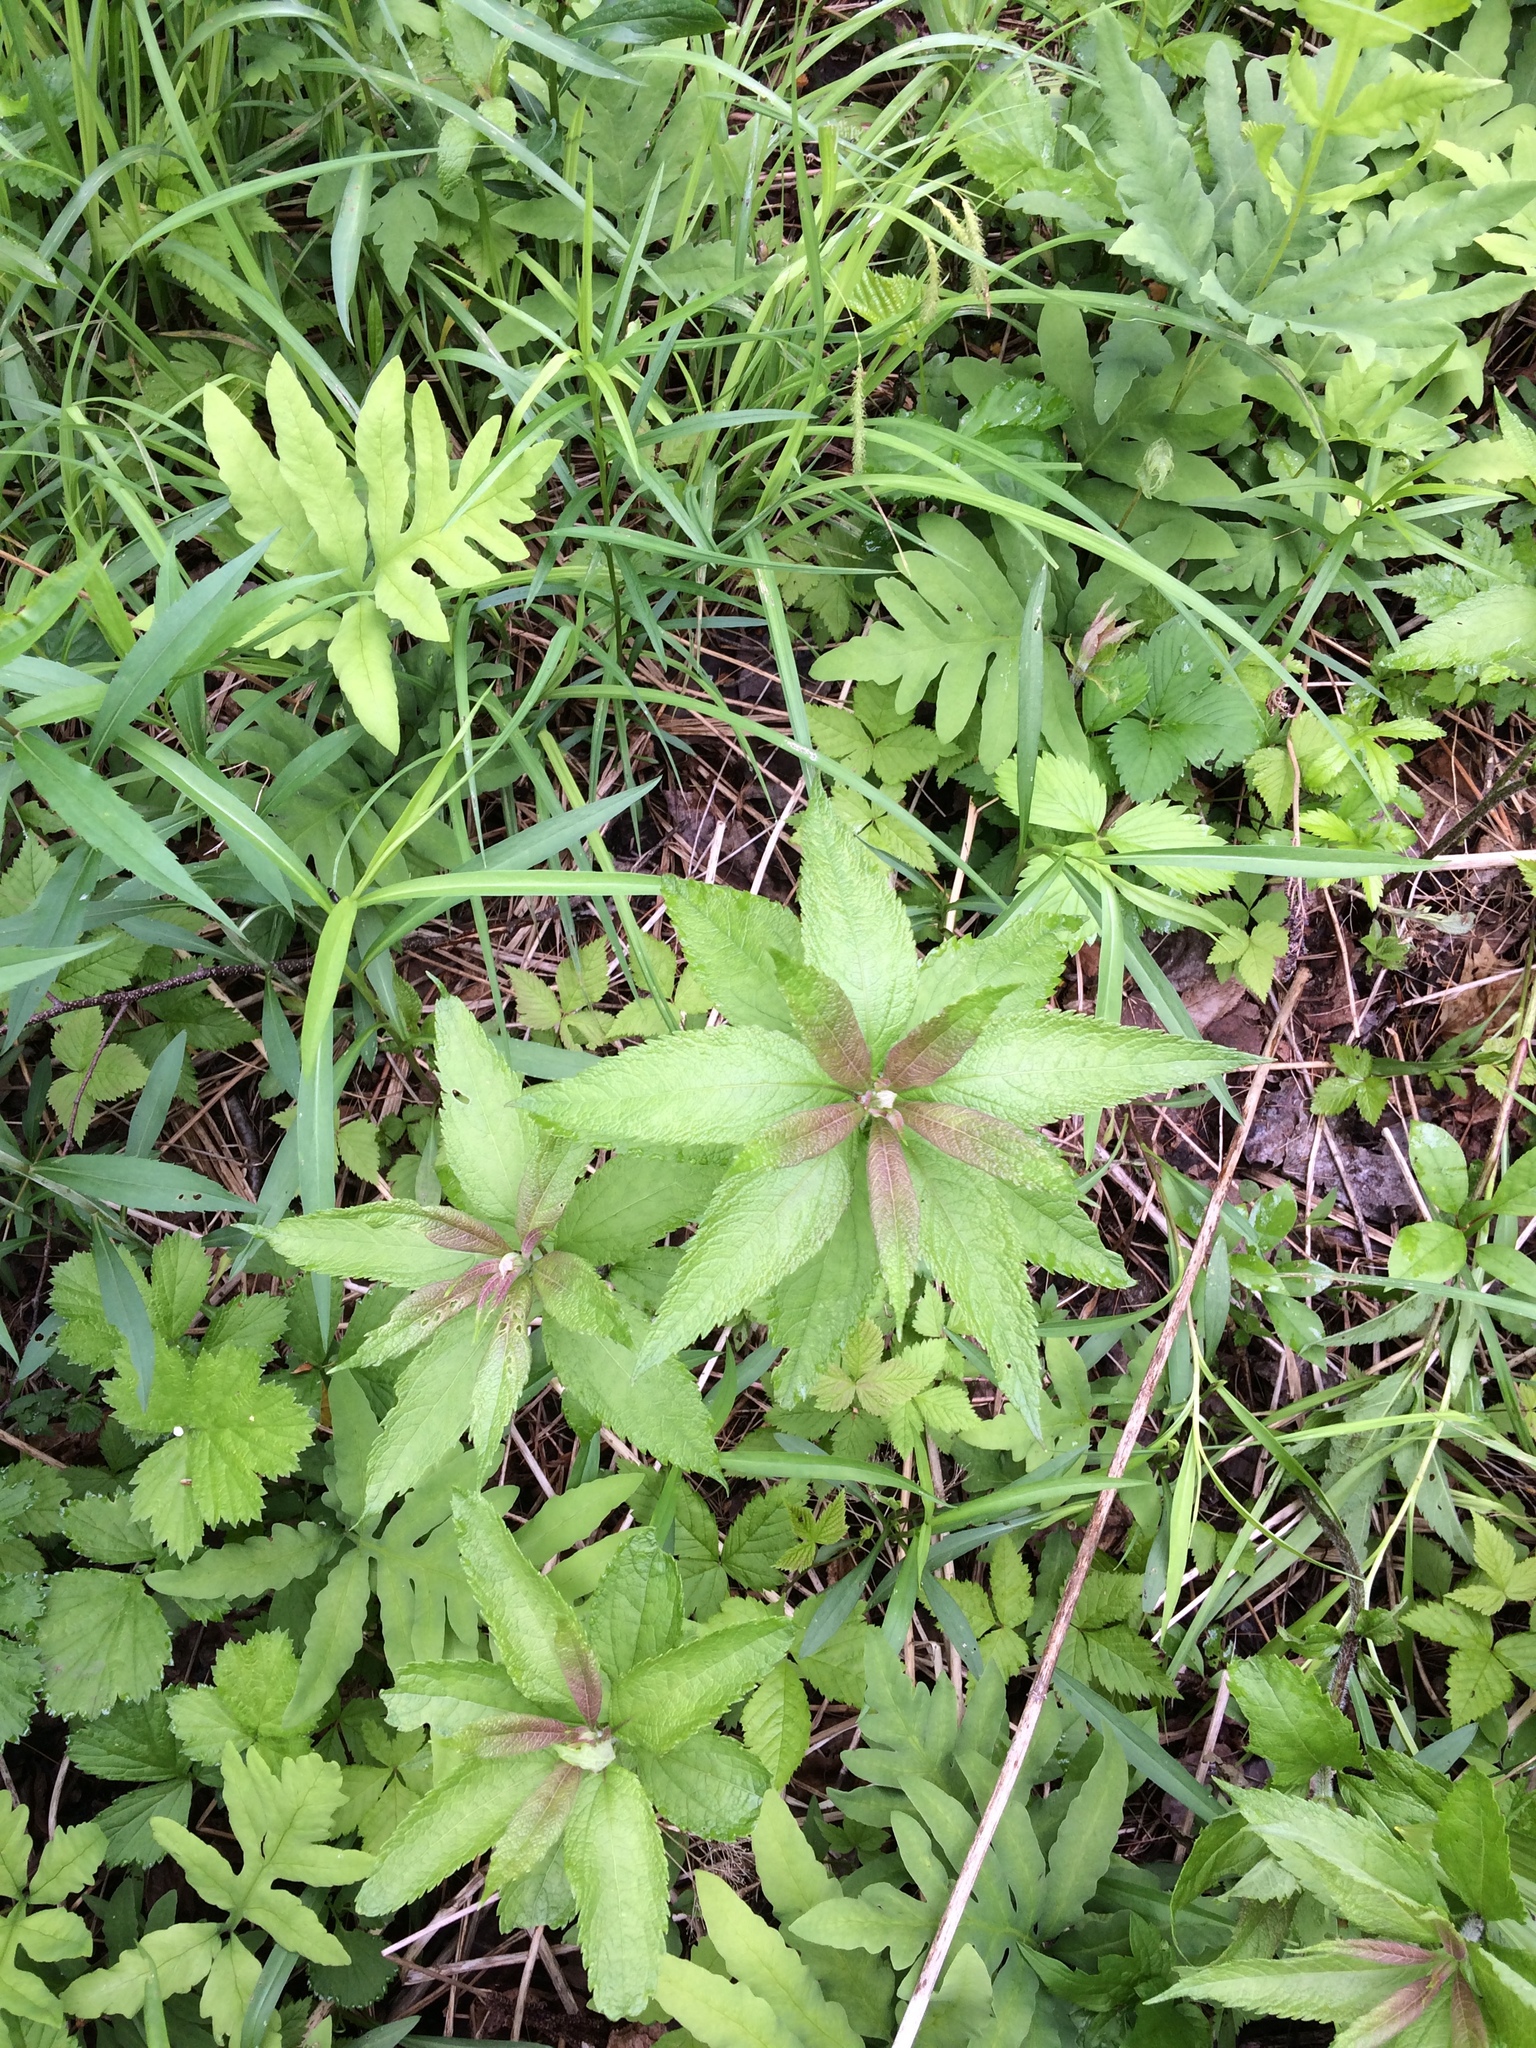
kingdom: Plantae
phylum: Tracheophyta
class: Magnoliopsida
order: Asterales
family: Asteraceae
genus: Eutrochium
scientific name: Eutrochium maculatum
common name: Spotted joe pye weed
